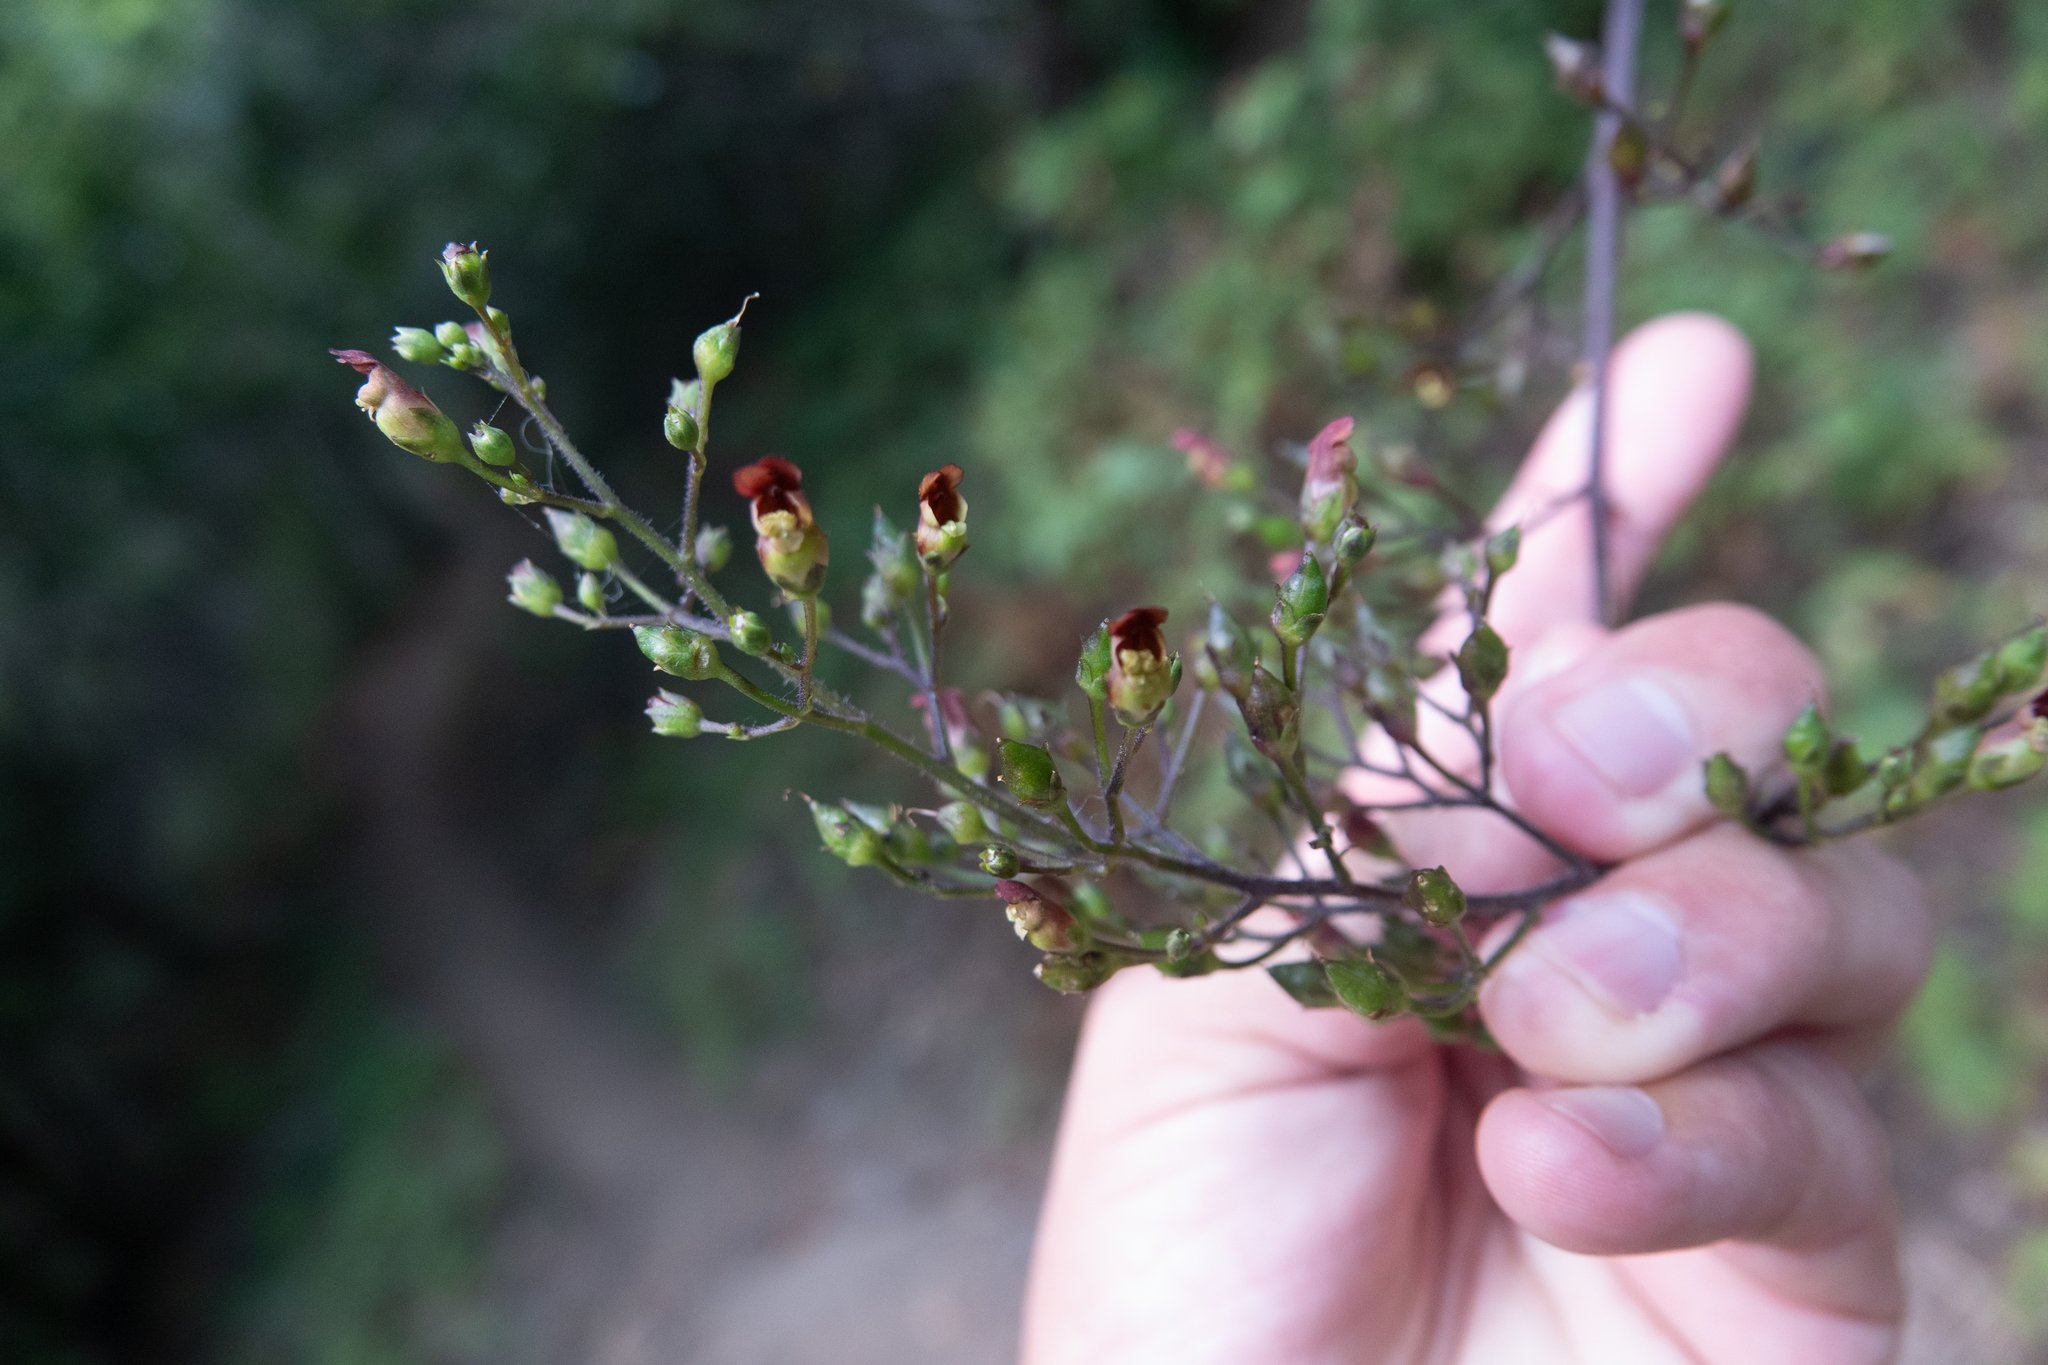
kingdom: Plantae
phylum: Tracheophyta
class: Magnoliopsida
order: Lamiales
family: Scrophulariaceae
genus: Scrophularia
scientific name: Scrophularia californica
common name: California figwort
